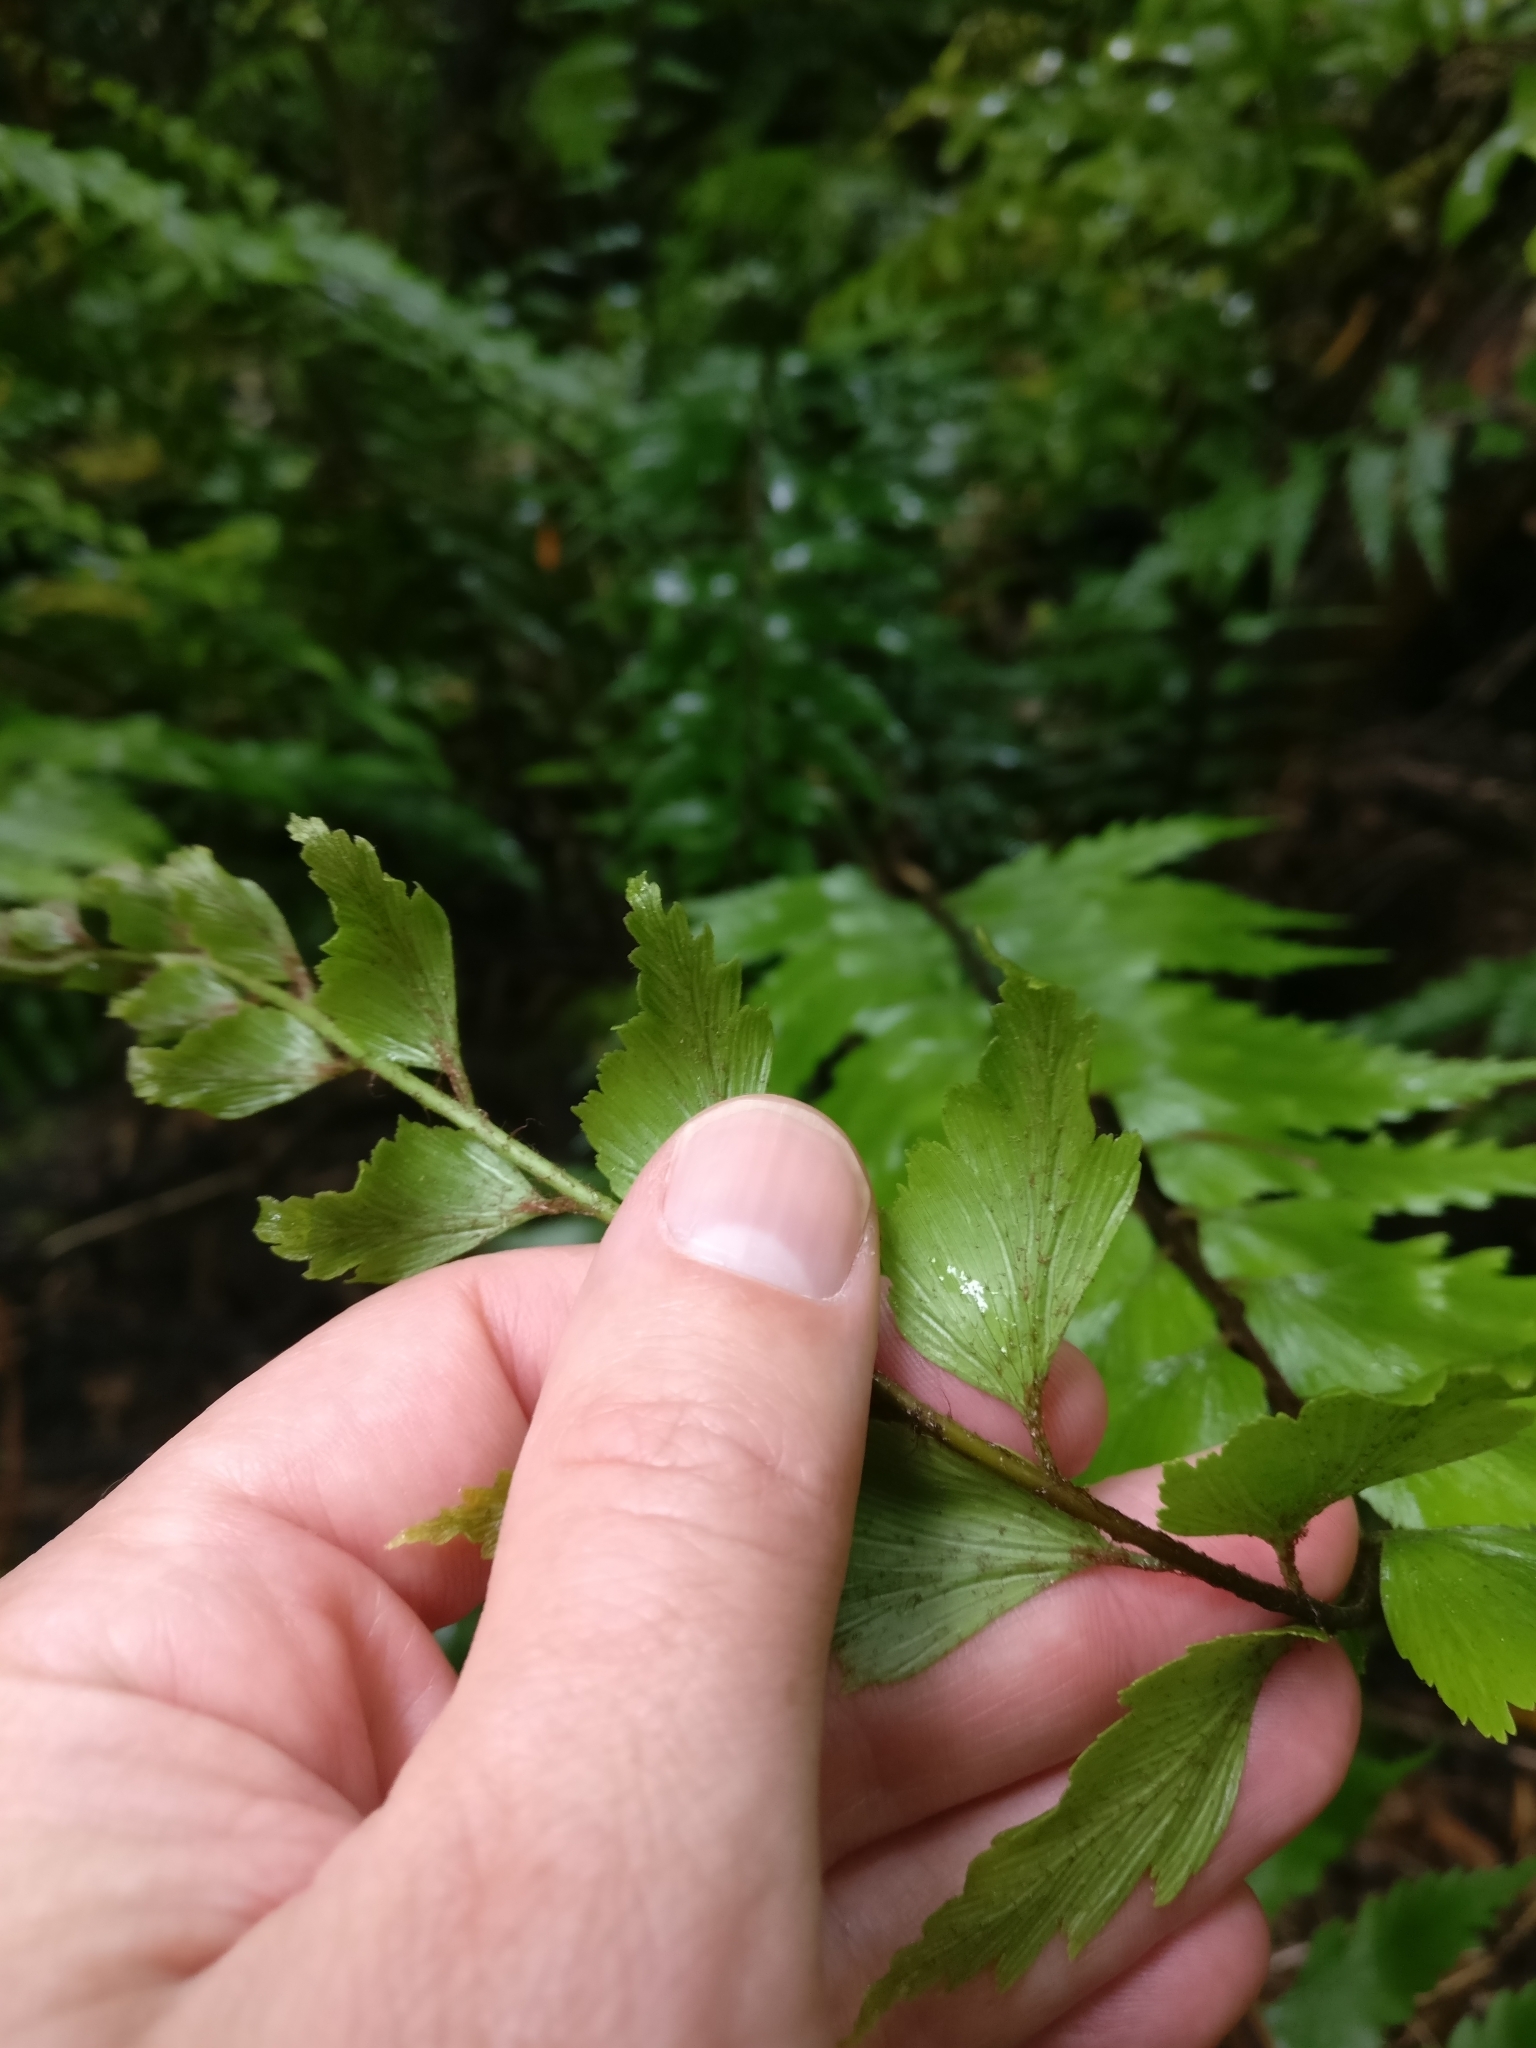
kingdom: Plantae
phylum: Tracheophyta
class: Polypodiopsida
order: Polypodiales
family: Aspleniaceae
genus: Asplenium
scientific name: Asplenium polyodon
